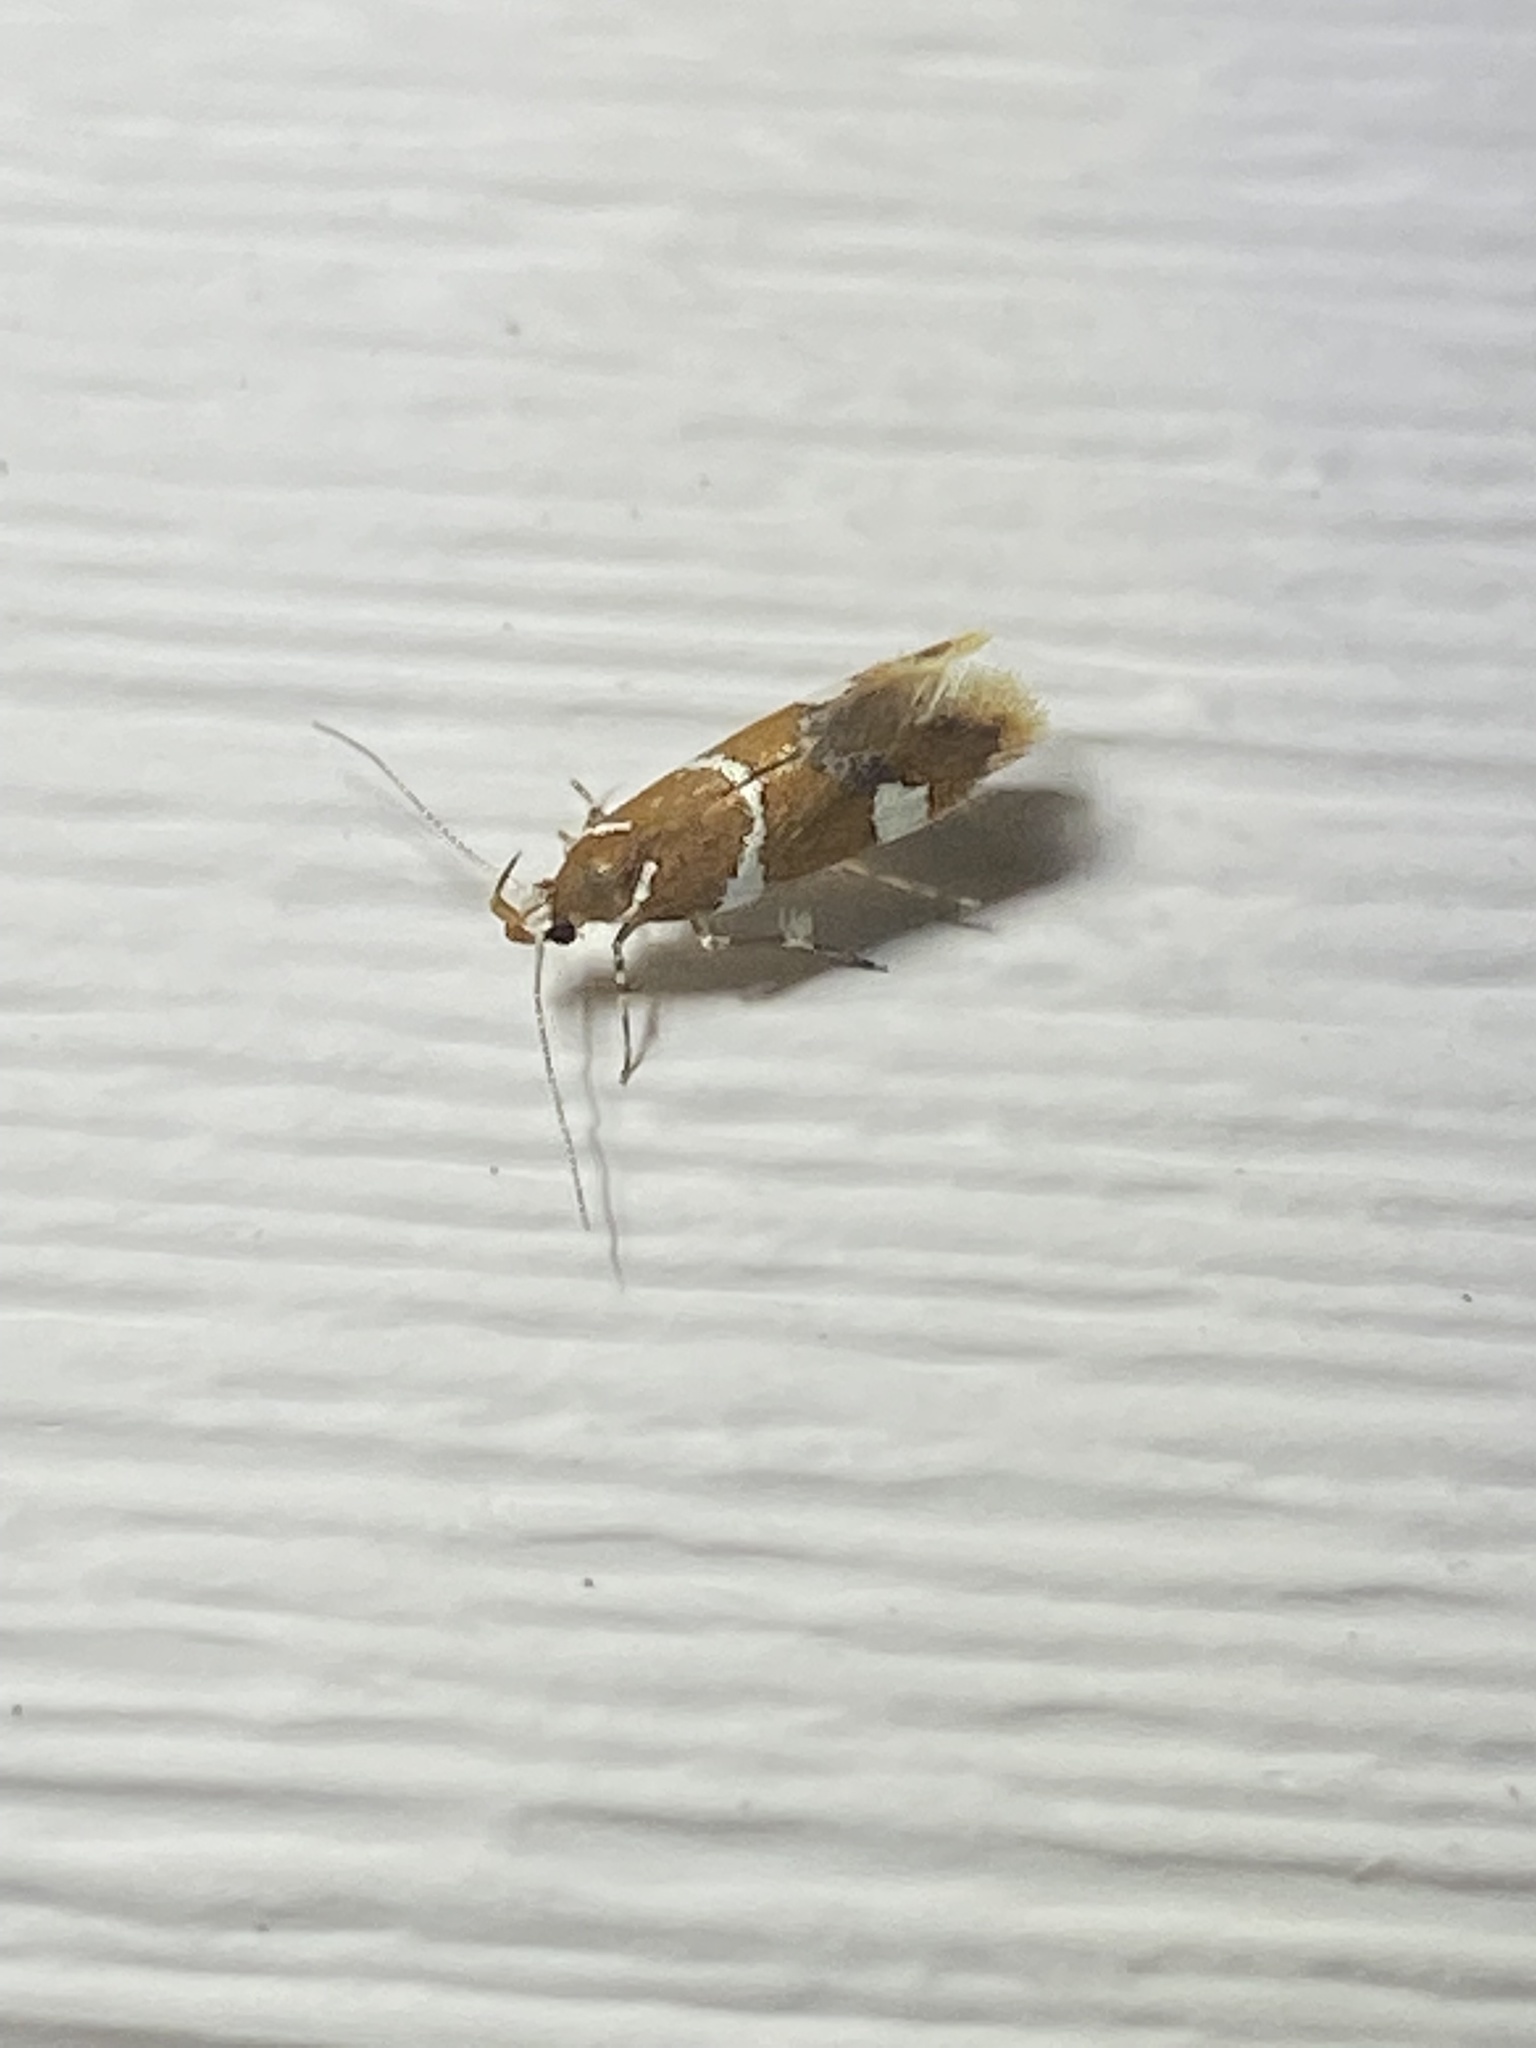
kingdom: Animalia
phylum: Arthropoda
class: Insecta
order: Lepidoptera
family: Oecophoridae
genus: Promalactis
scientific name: Promalactis suzukiella
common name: Moth
